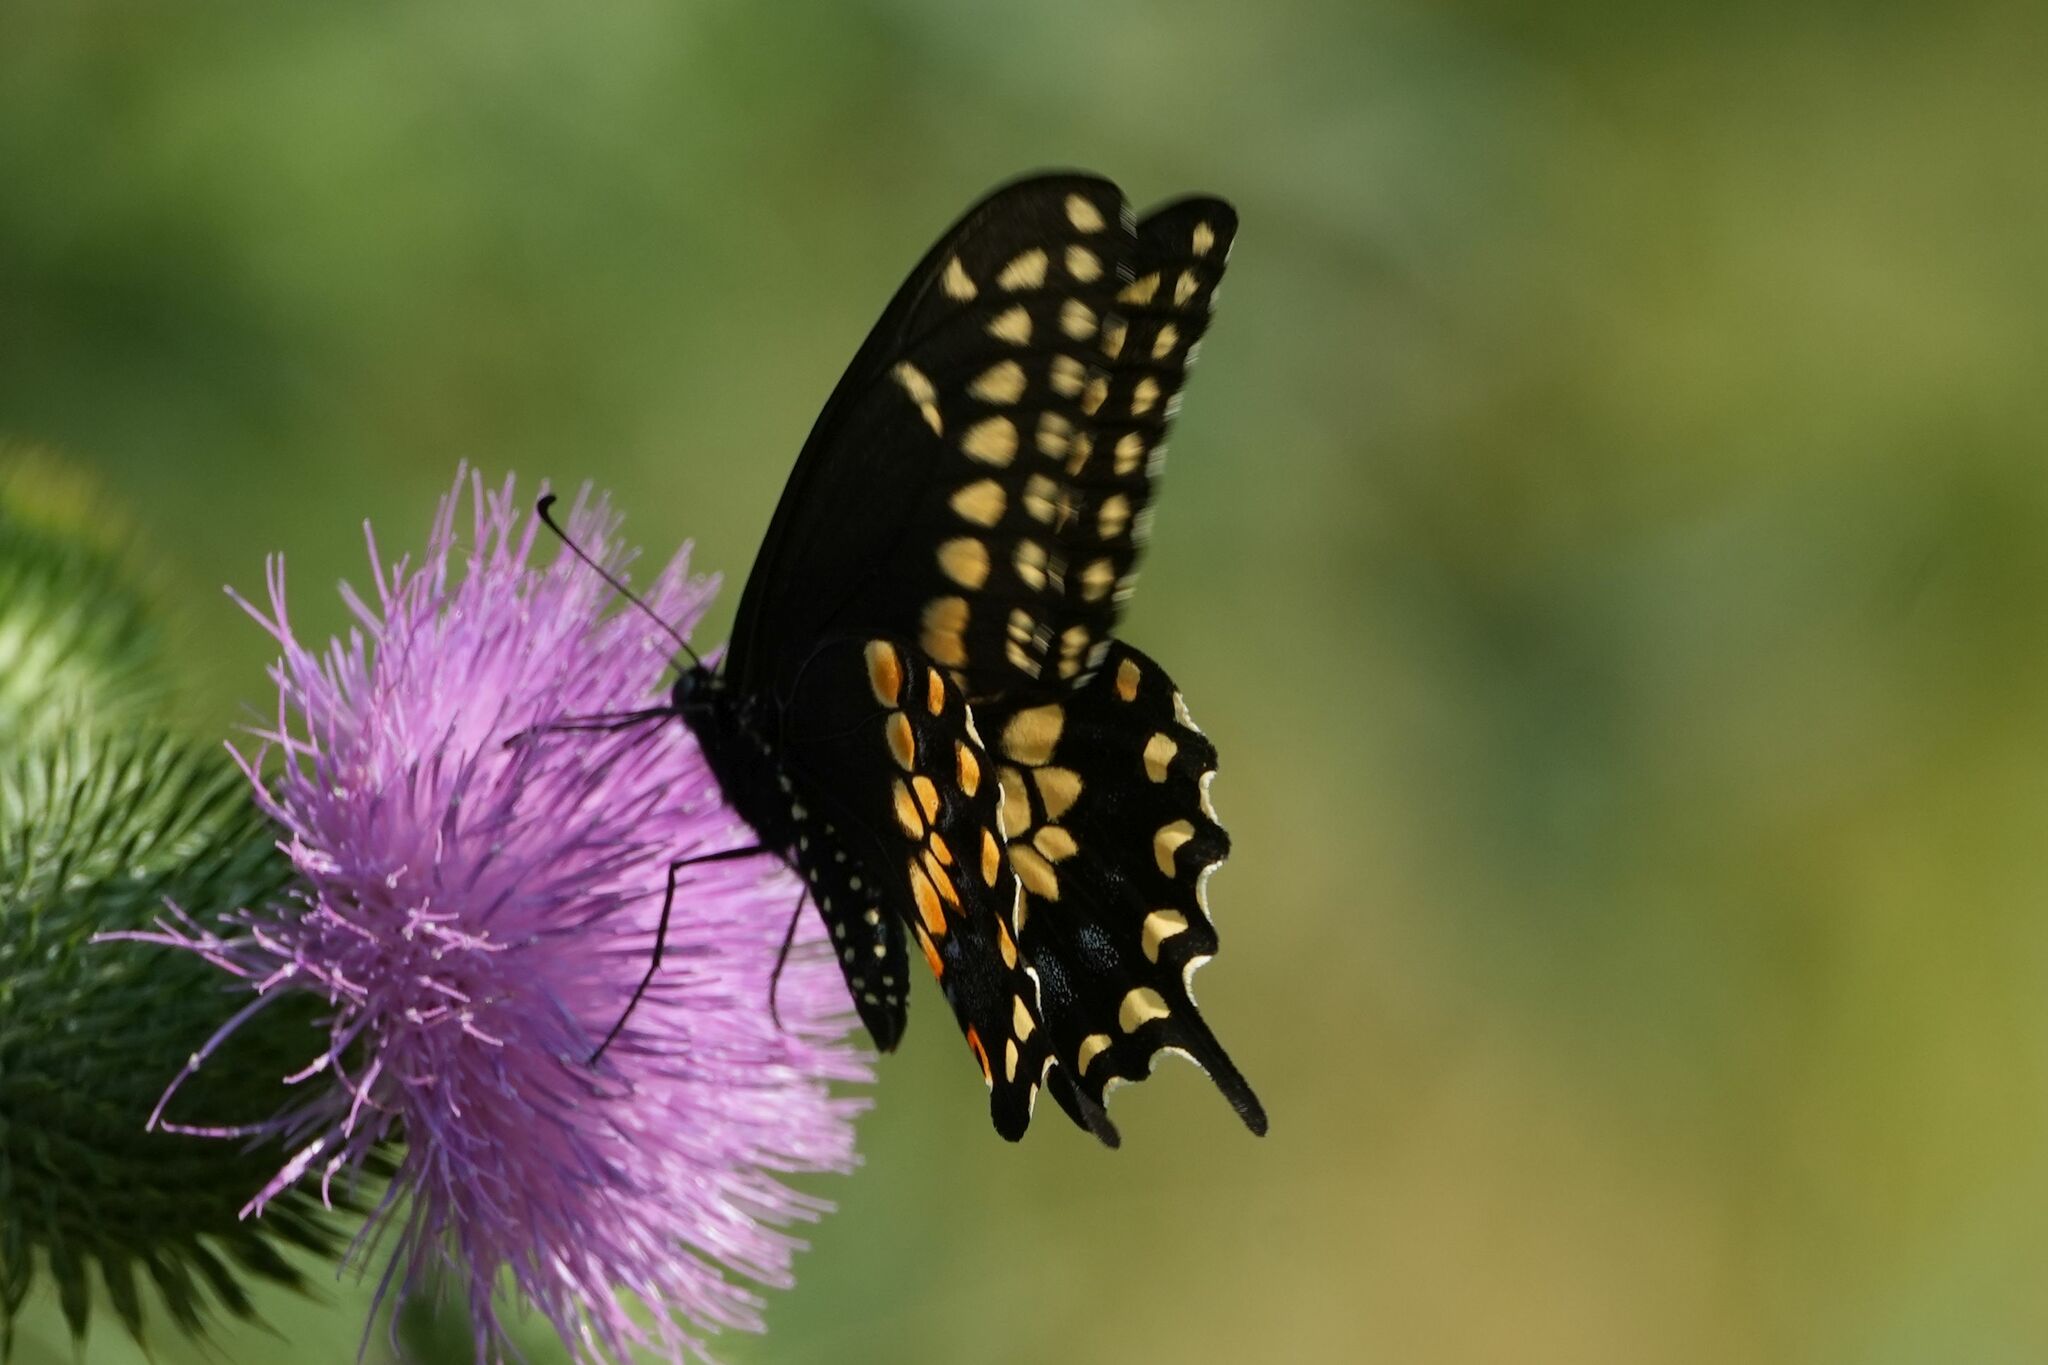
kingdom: Animalia
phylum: Arthropoda
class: Insecta
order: Lepidoptera
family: Papilionidae
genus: Papilio
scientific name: Papilio polyxenes
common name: Black swallowtail
